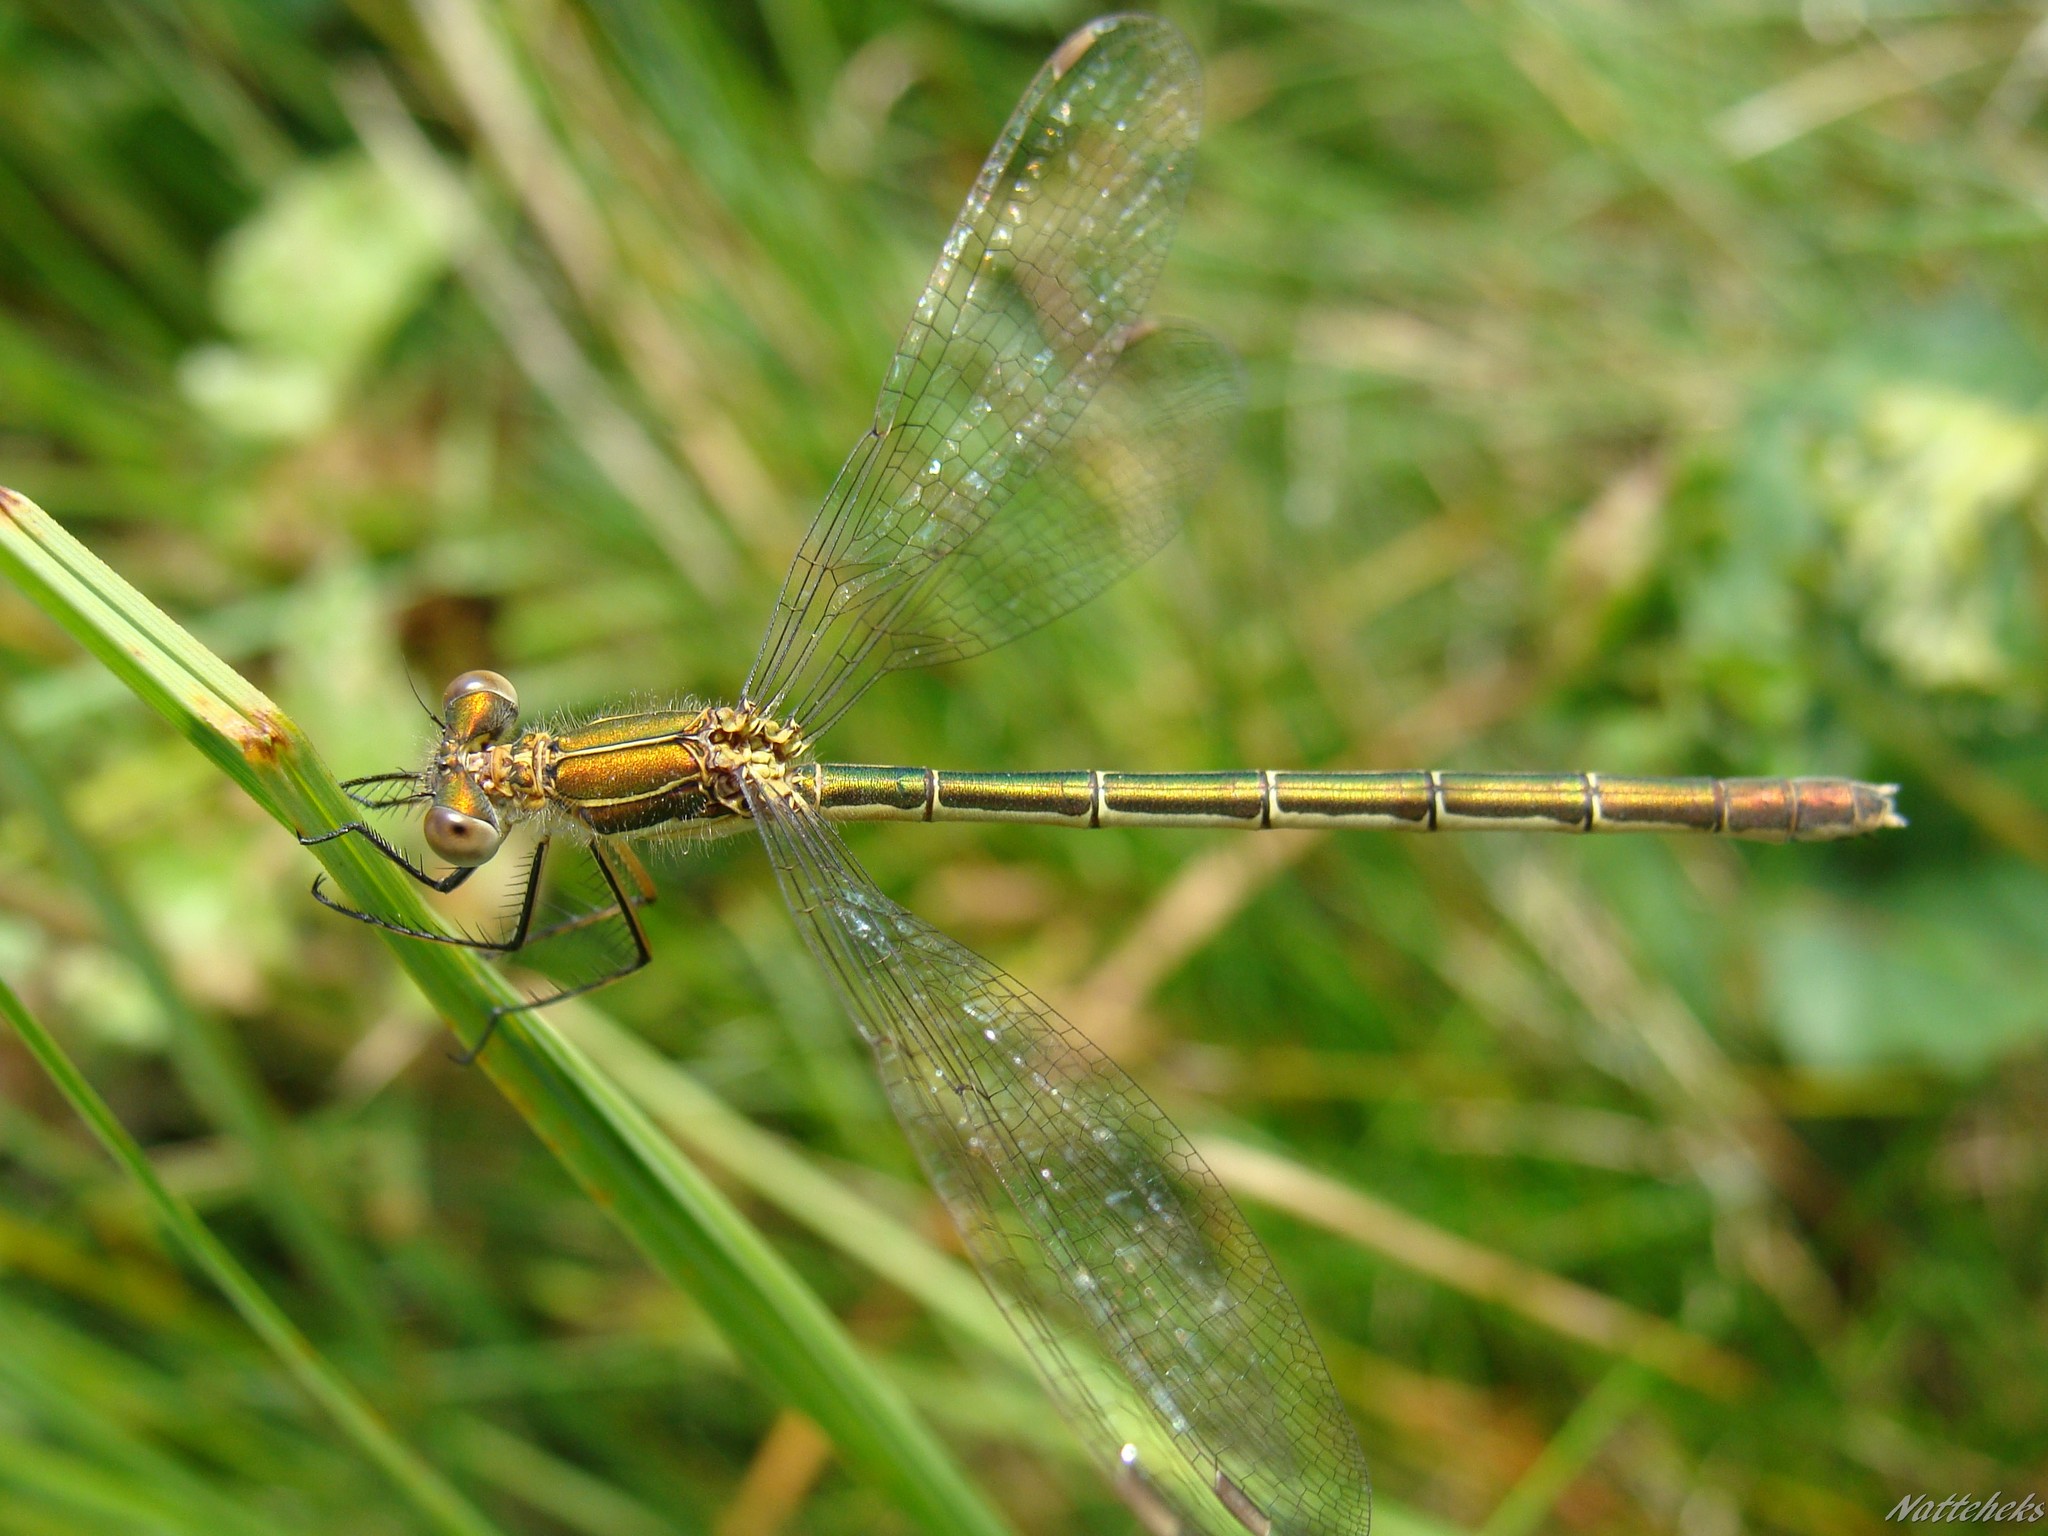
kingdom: Animalia
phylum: Arthropoda
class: Insecta
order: Odonata
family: Lestidae
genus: Lestes
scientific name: Lestes sponsa
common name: Common spreadwing
